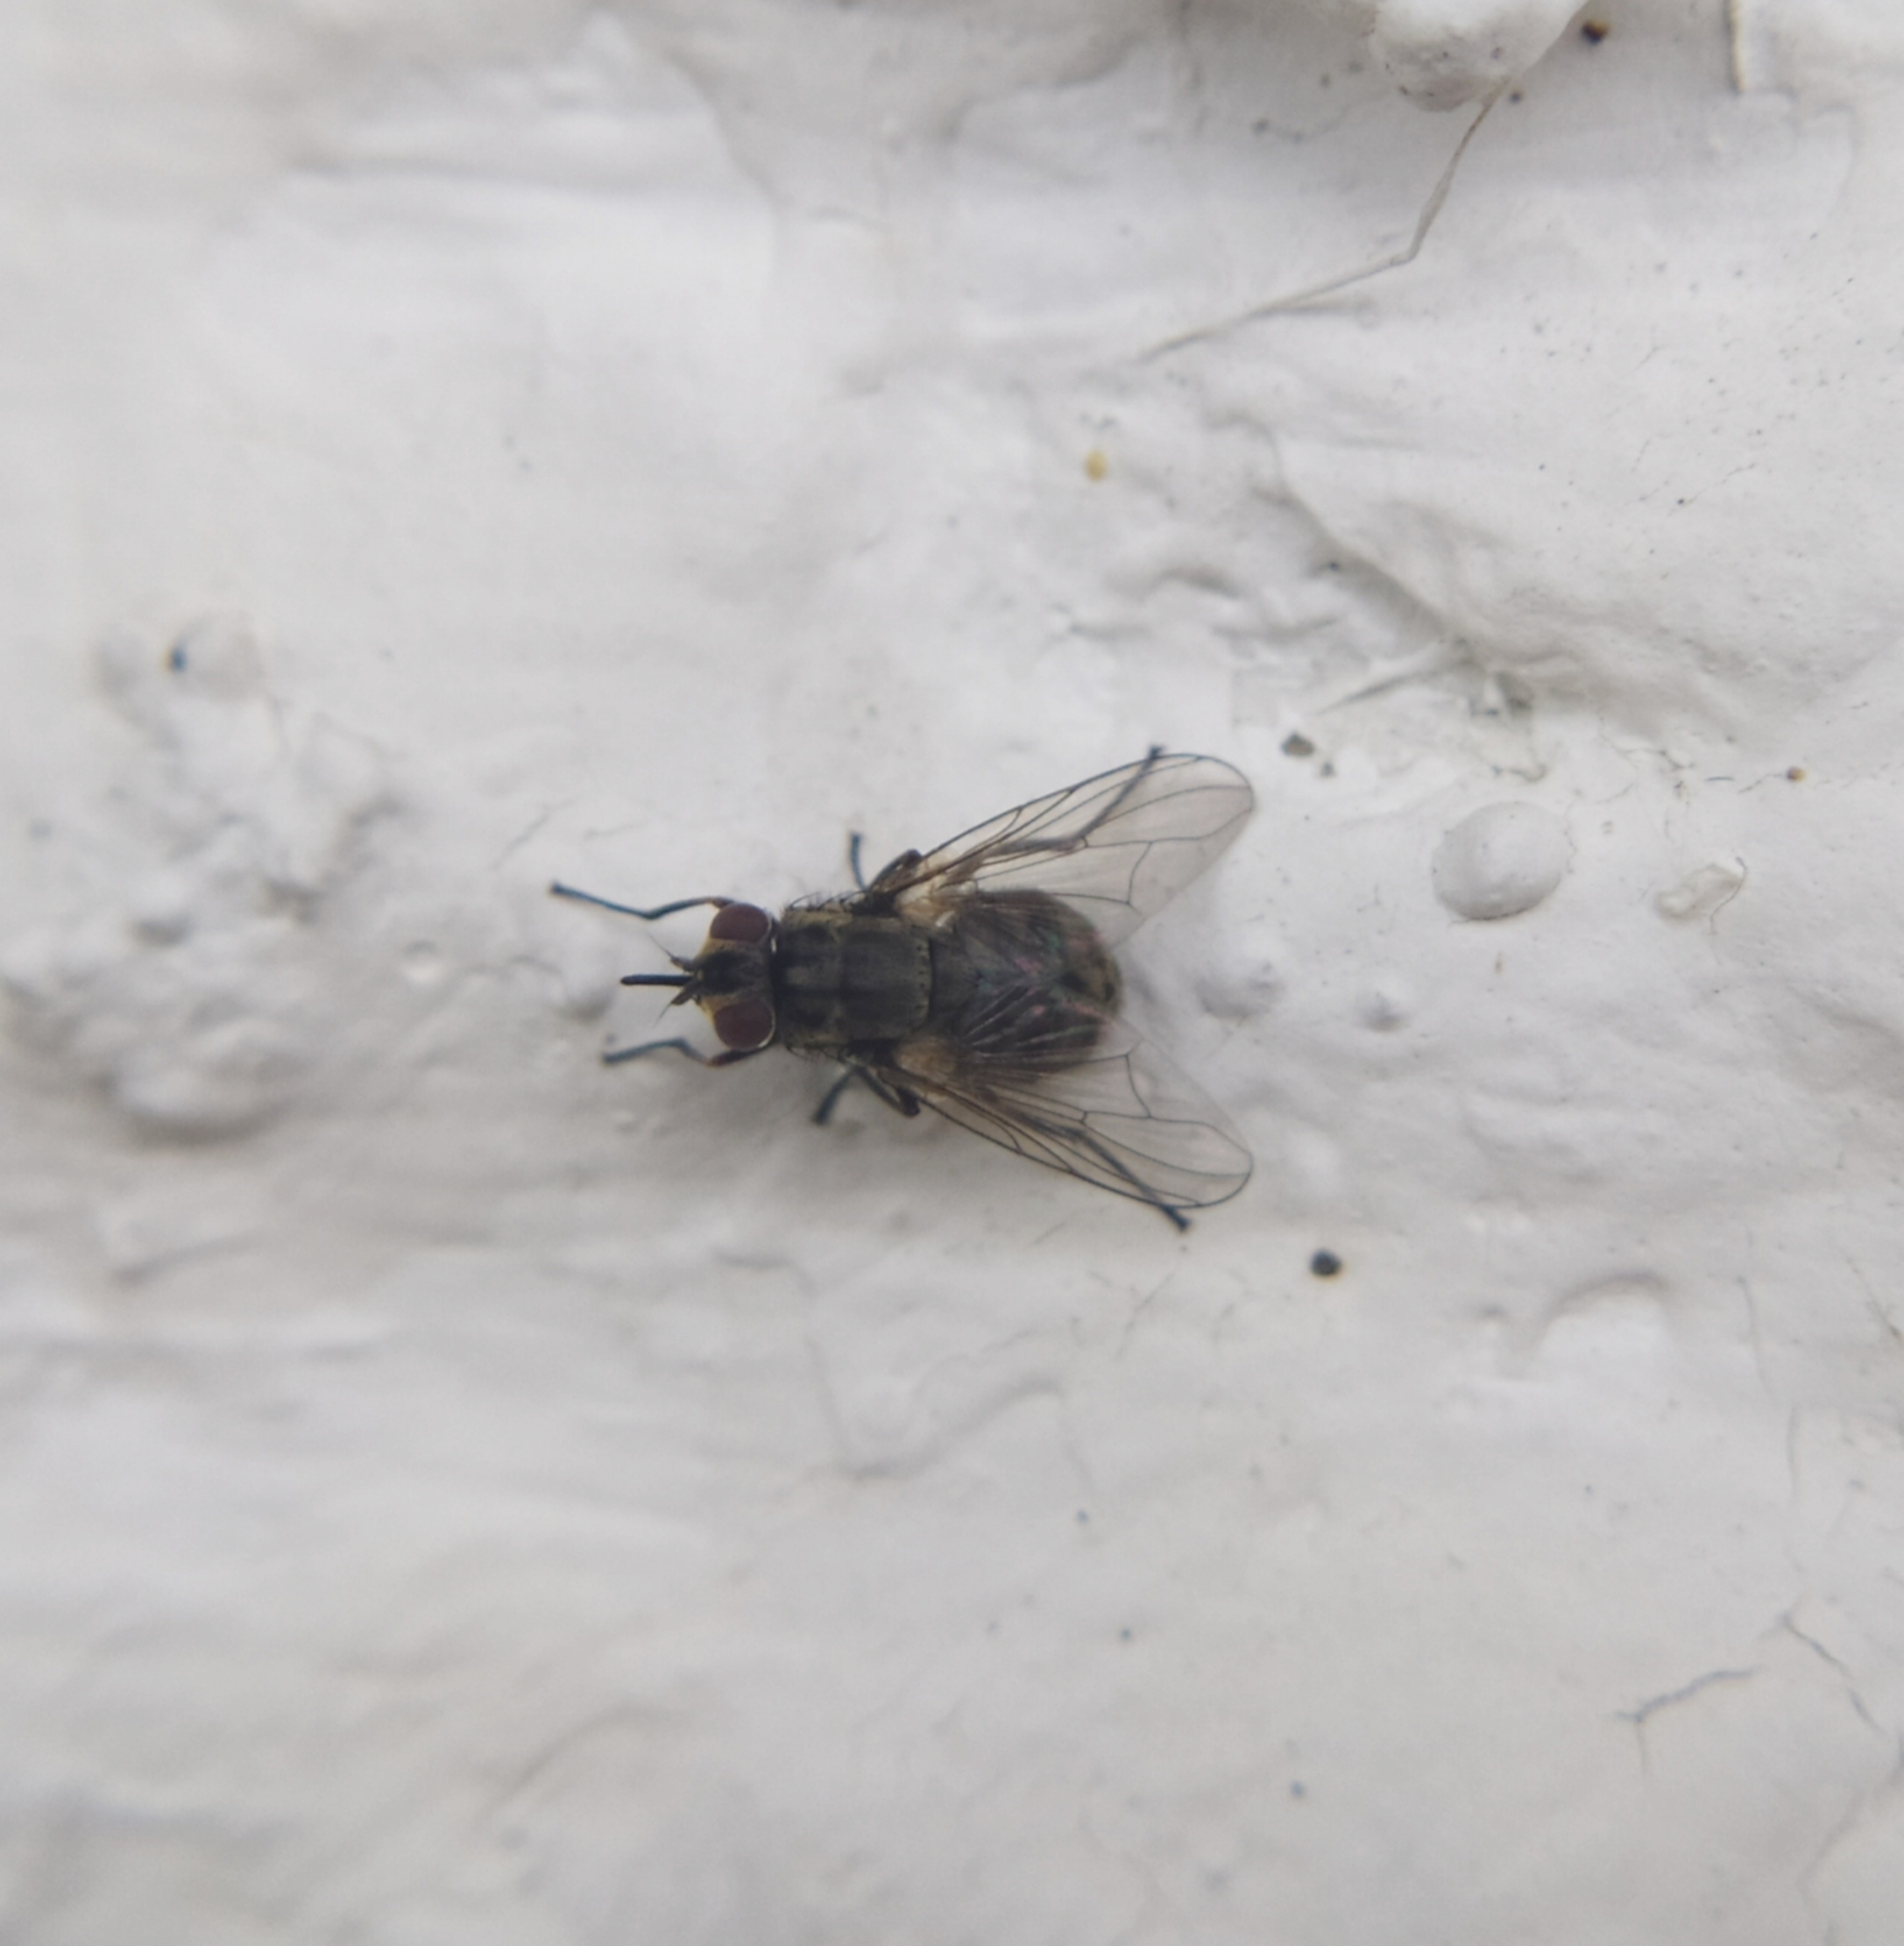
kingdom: Animalia
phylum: Arthropoda
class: Insecta
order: Diptera
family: Muscidae
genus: Stomoxys
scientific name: Stomoxys calcitrans
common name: Stable fly
